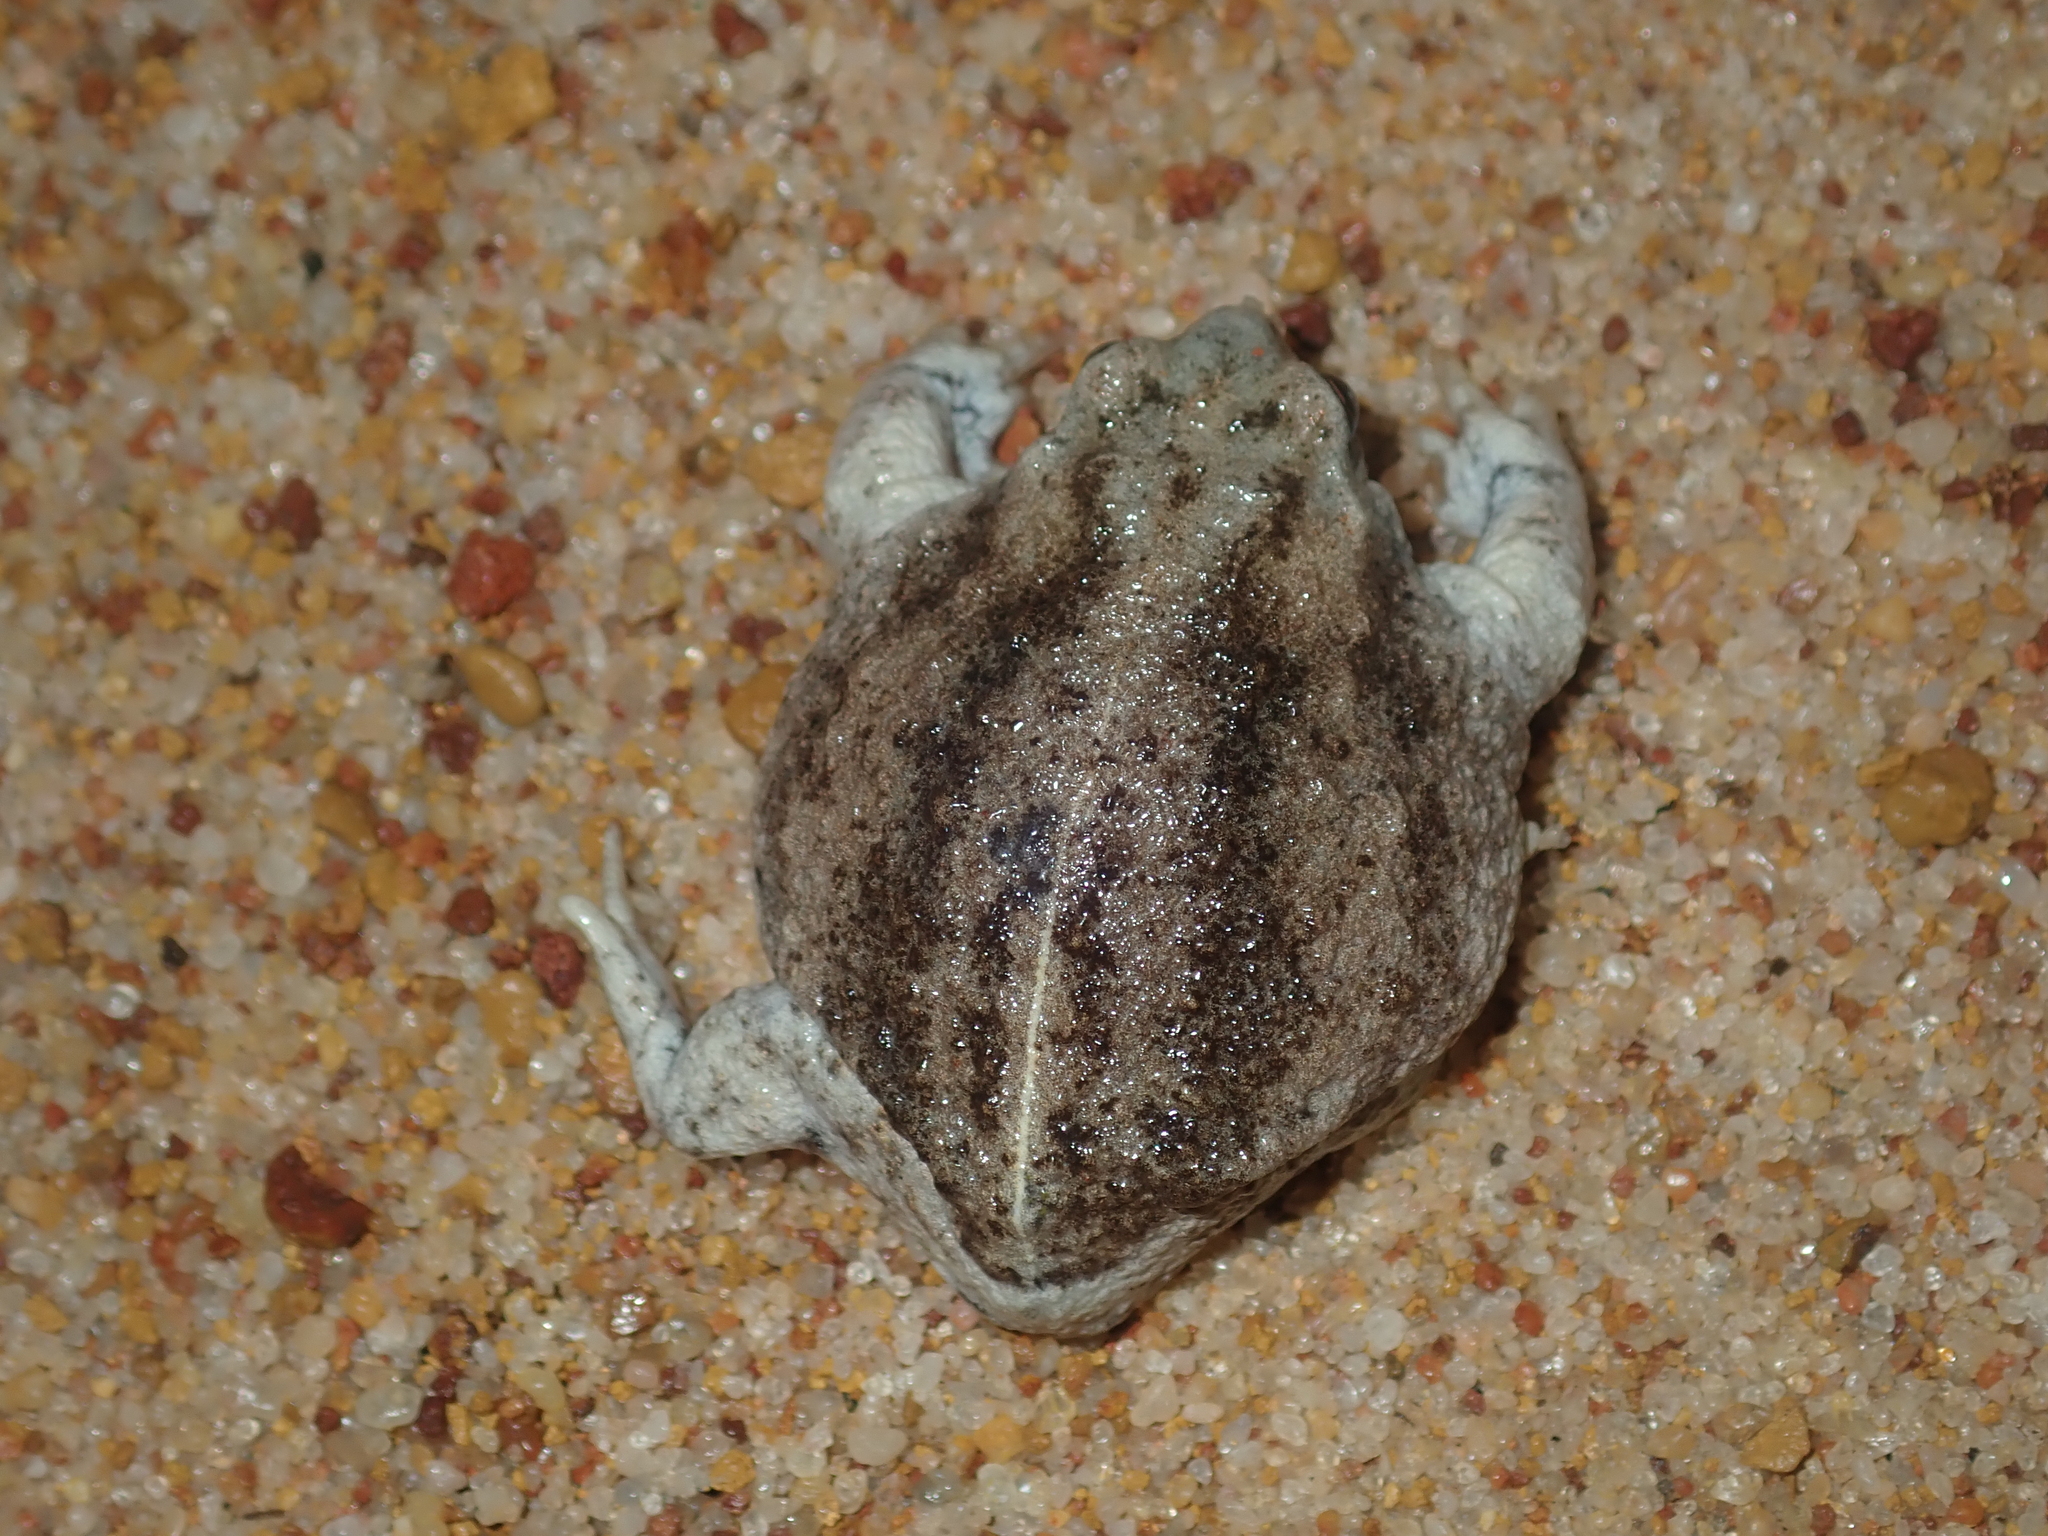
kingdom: Animalia
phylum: Chordata
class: Amphibia
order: Anura
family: Myobatrachidae
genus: Arenophryne
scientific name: Arenophryne xiphorhyncha
